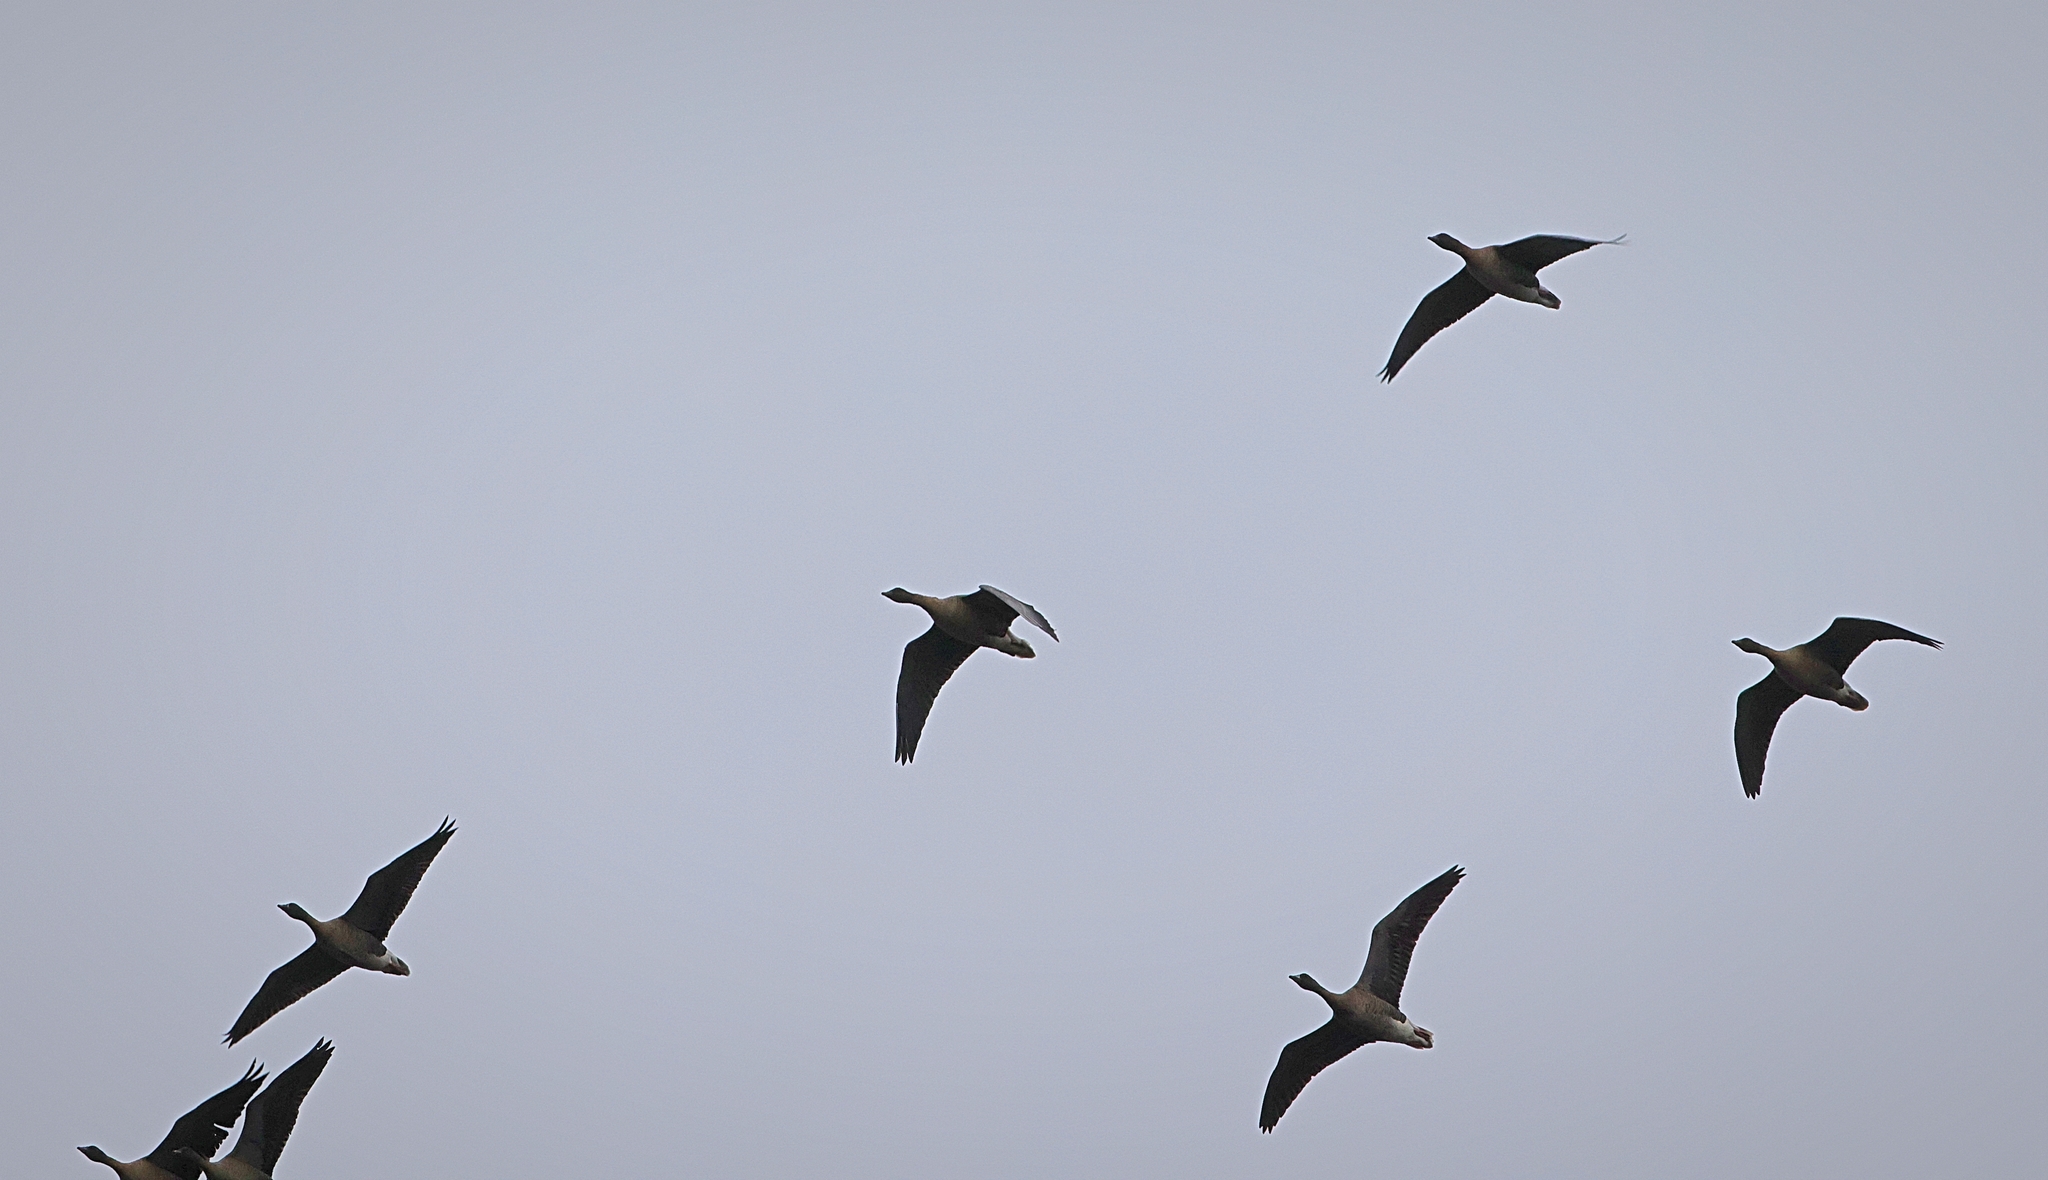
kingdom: Animalia
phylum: Chordata
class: Aves
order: Anseriformes
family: Anatidae
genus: Anser
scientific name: Anser brachyrhynchus
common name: Pink-footed goose
